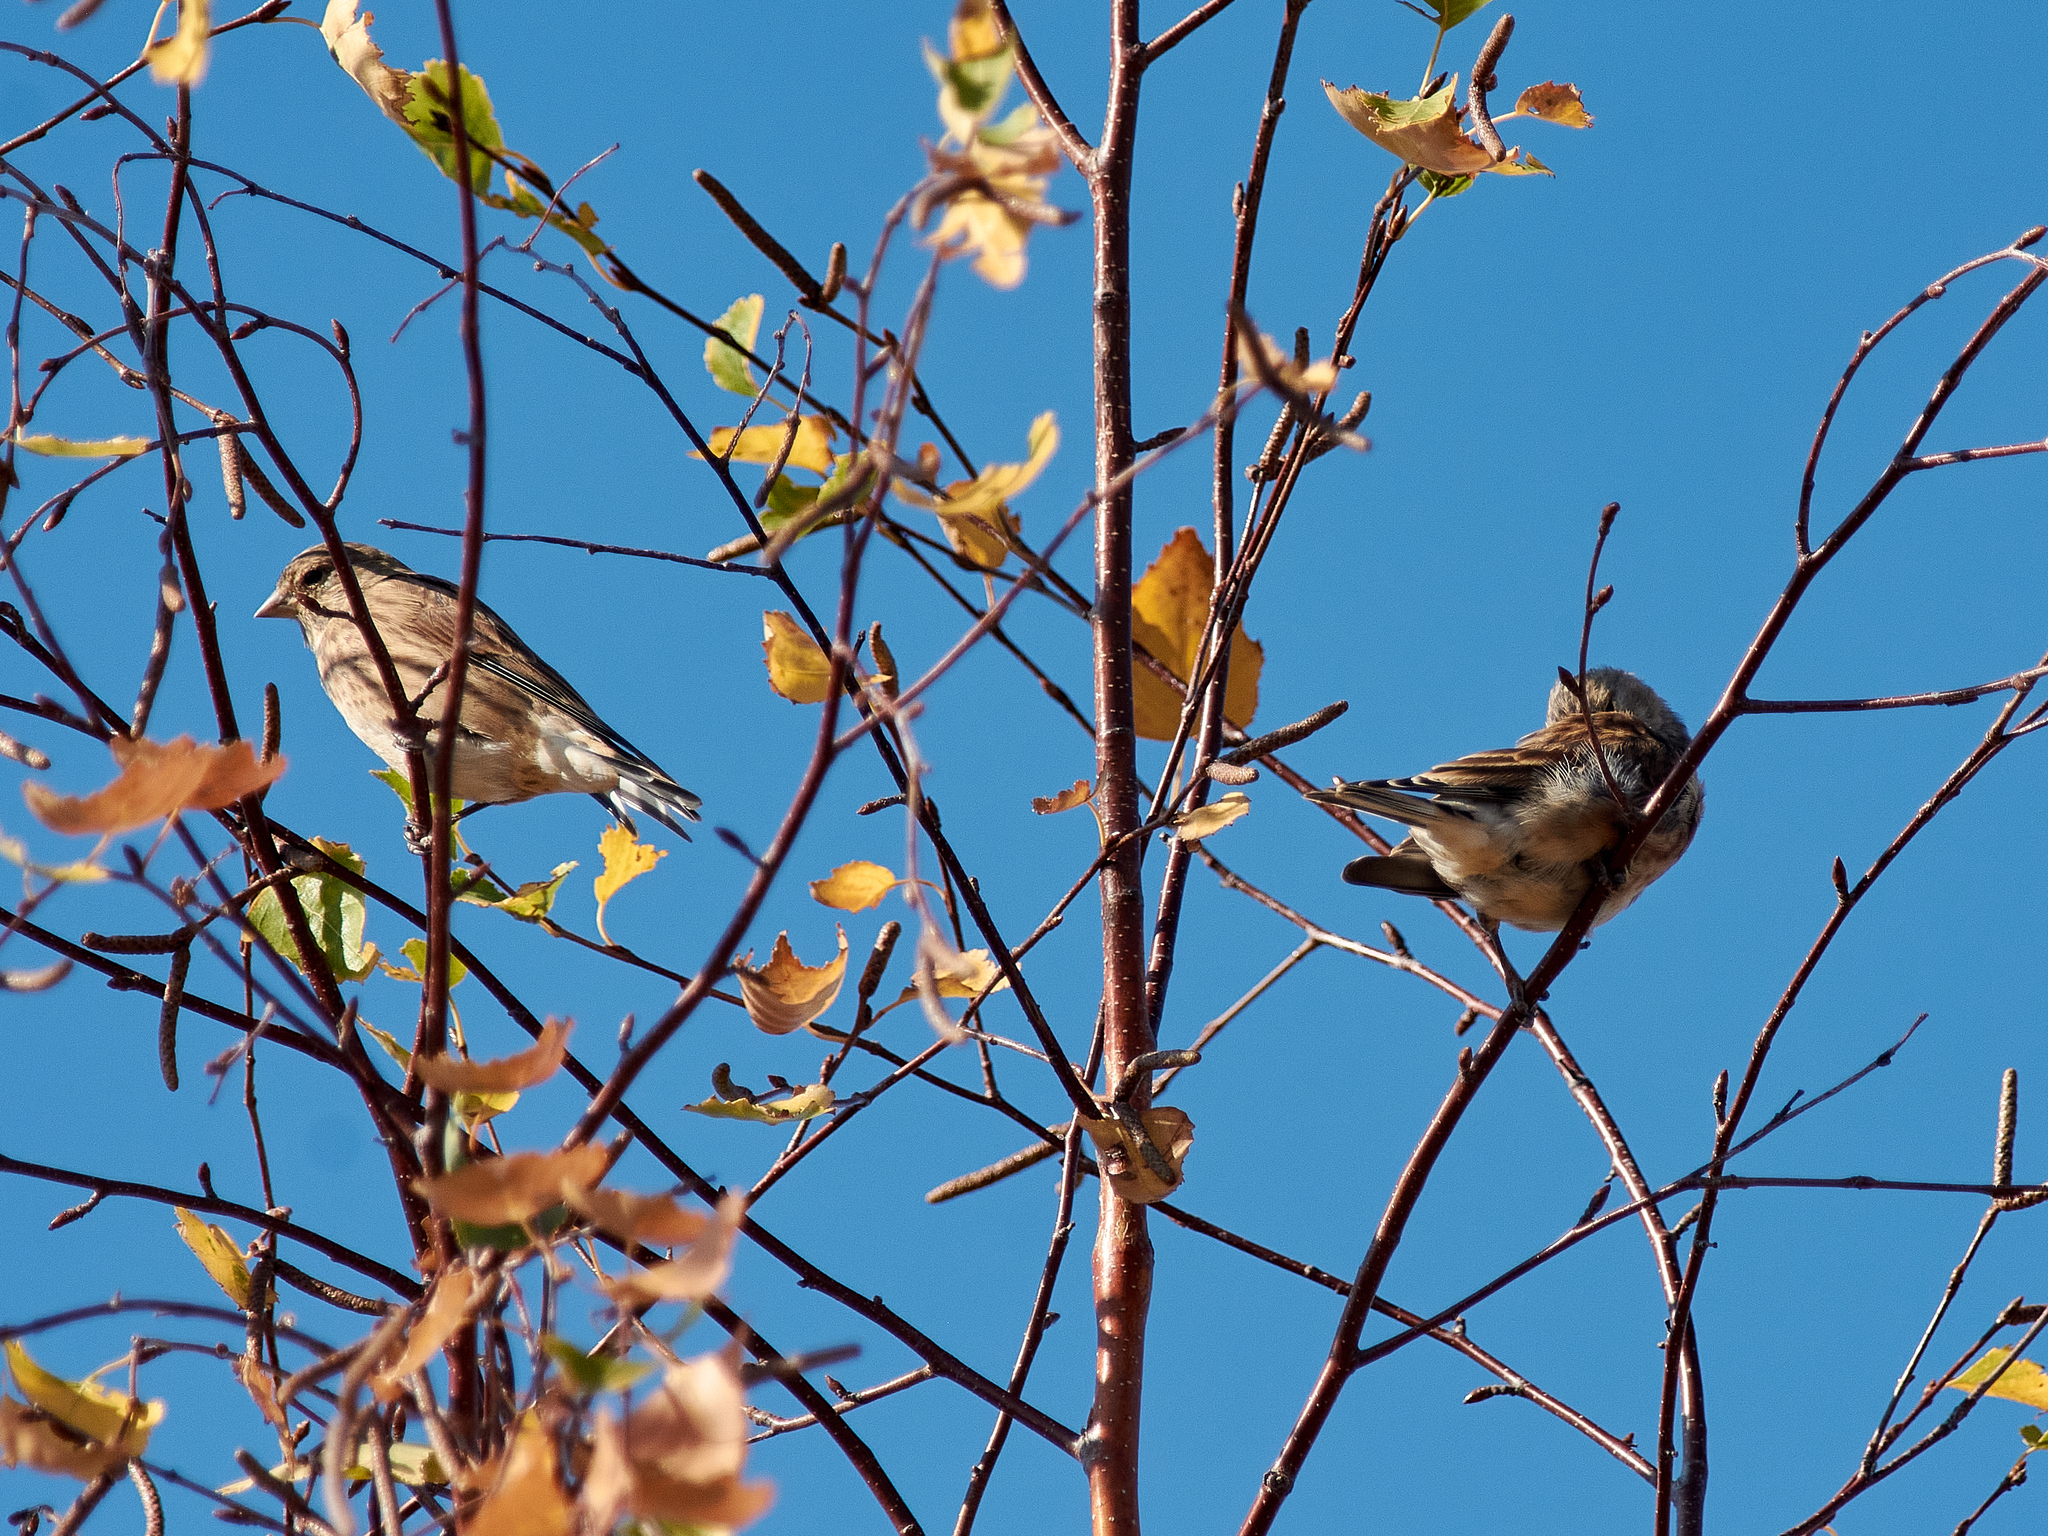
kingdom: Animalia
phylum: Chordata
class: Aves
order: Passeriformes
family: Fringillidae
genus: Linaria
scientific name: Linaria cannabina
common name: Common linnet
